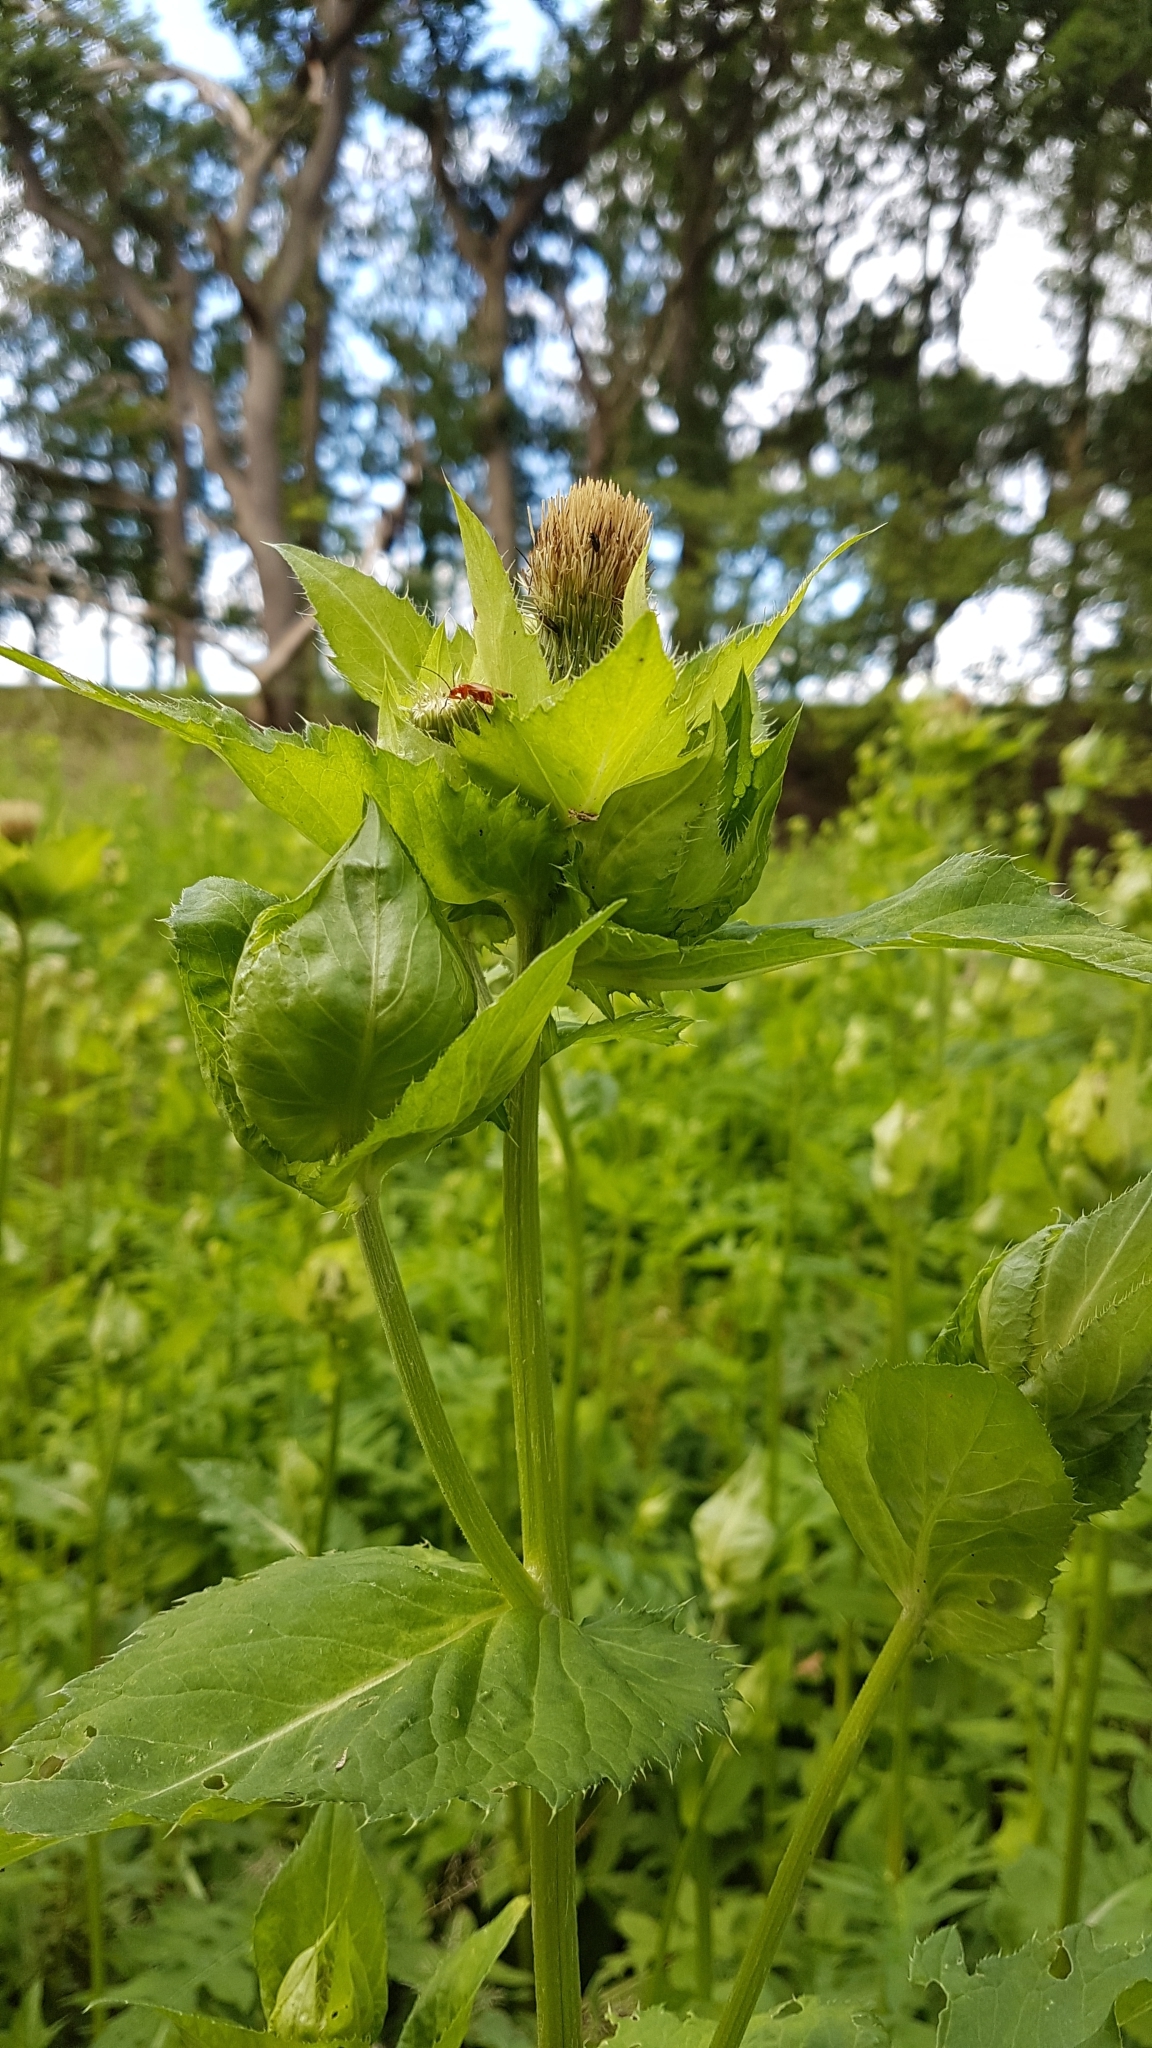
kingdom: Plantae
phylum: Tracheophyta
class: Magnoliopsida
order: Asterales
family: Asteraceae
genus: Cirsium
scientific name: Cirsium oleraceum
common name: Cabbage thistle
